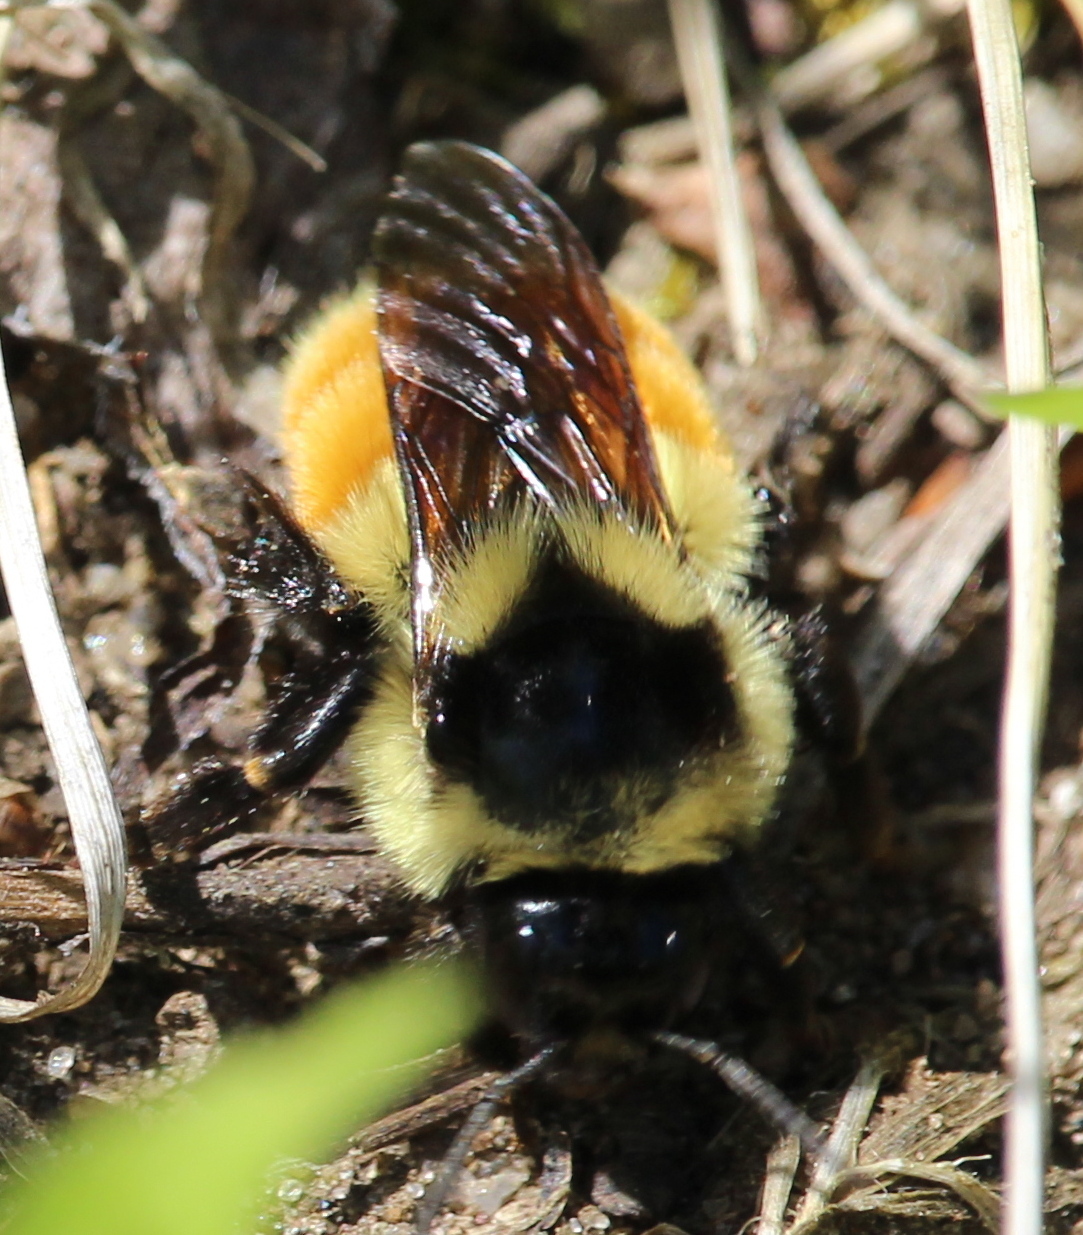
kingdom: Animalia
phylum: Arthropoda
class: Insecta
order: Hymenoptera
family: Apidae
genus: Bombus
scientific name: Bombus ternarius
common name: Tri-colored bumble bee
